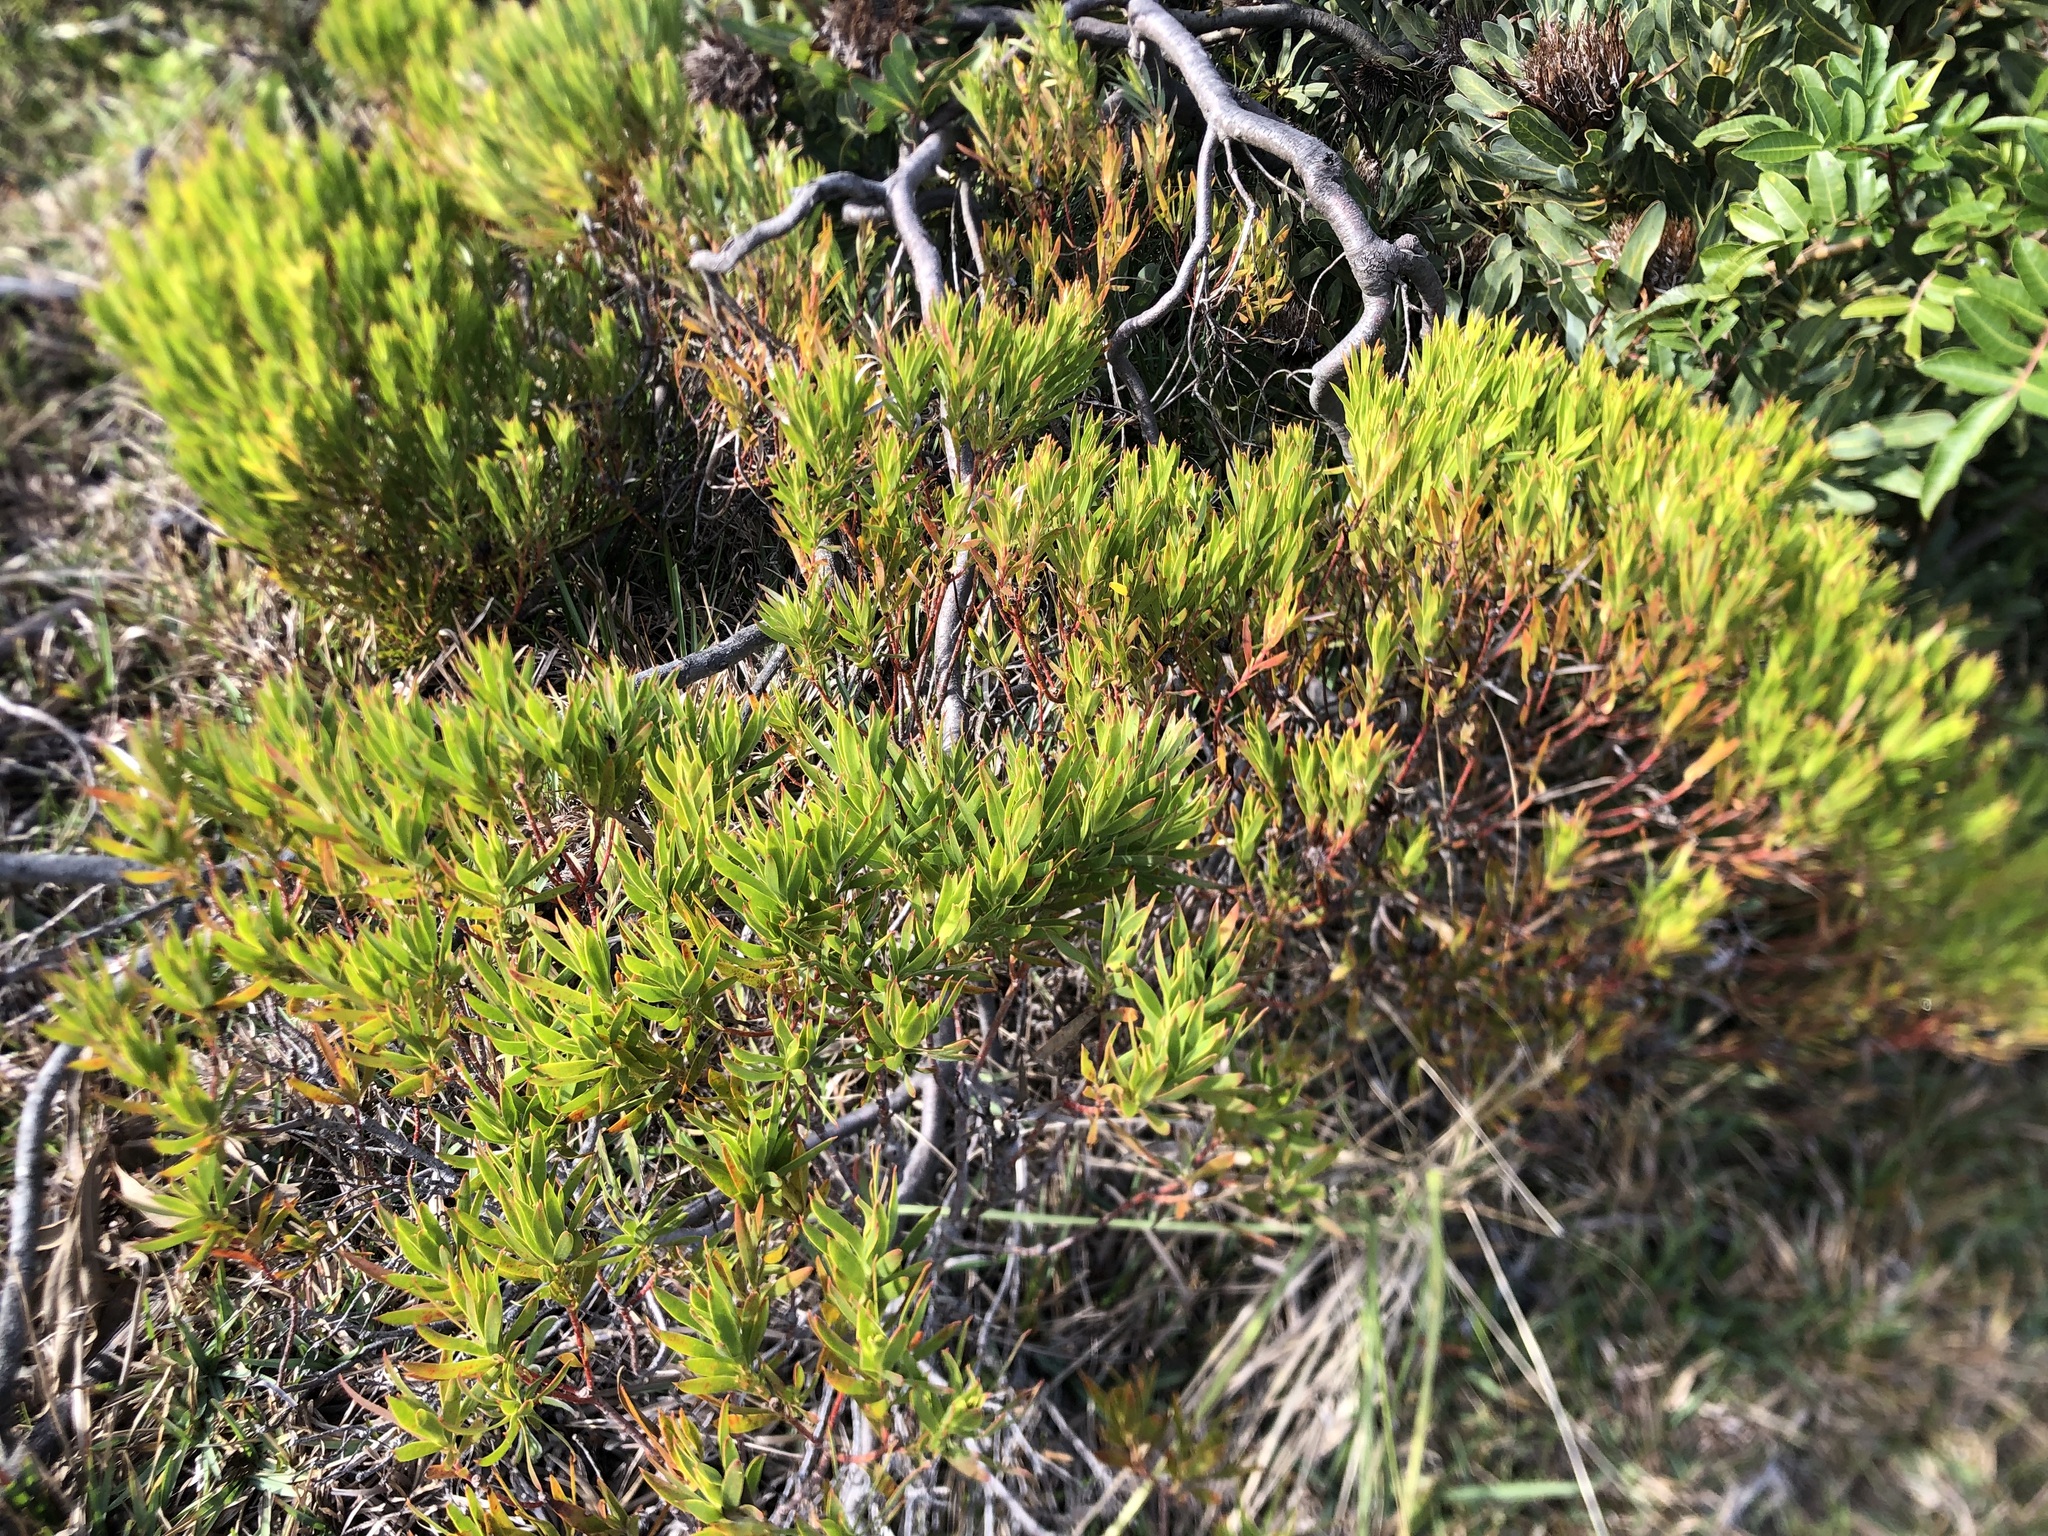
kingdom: Plantae
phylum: Tracheophyta
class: Magnoliopsida
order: Proteales
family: Proteaceae
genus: Leucadendron
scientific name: Leucadendron coniferum
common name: Dune conebush
